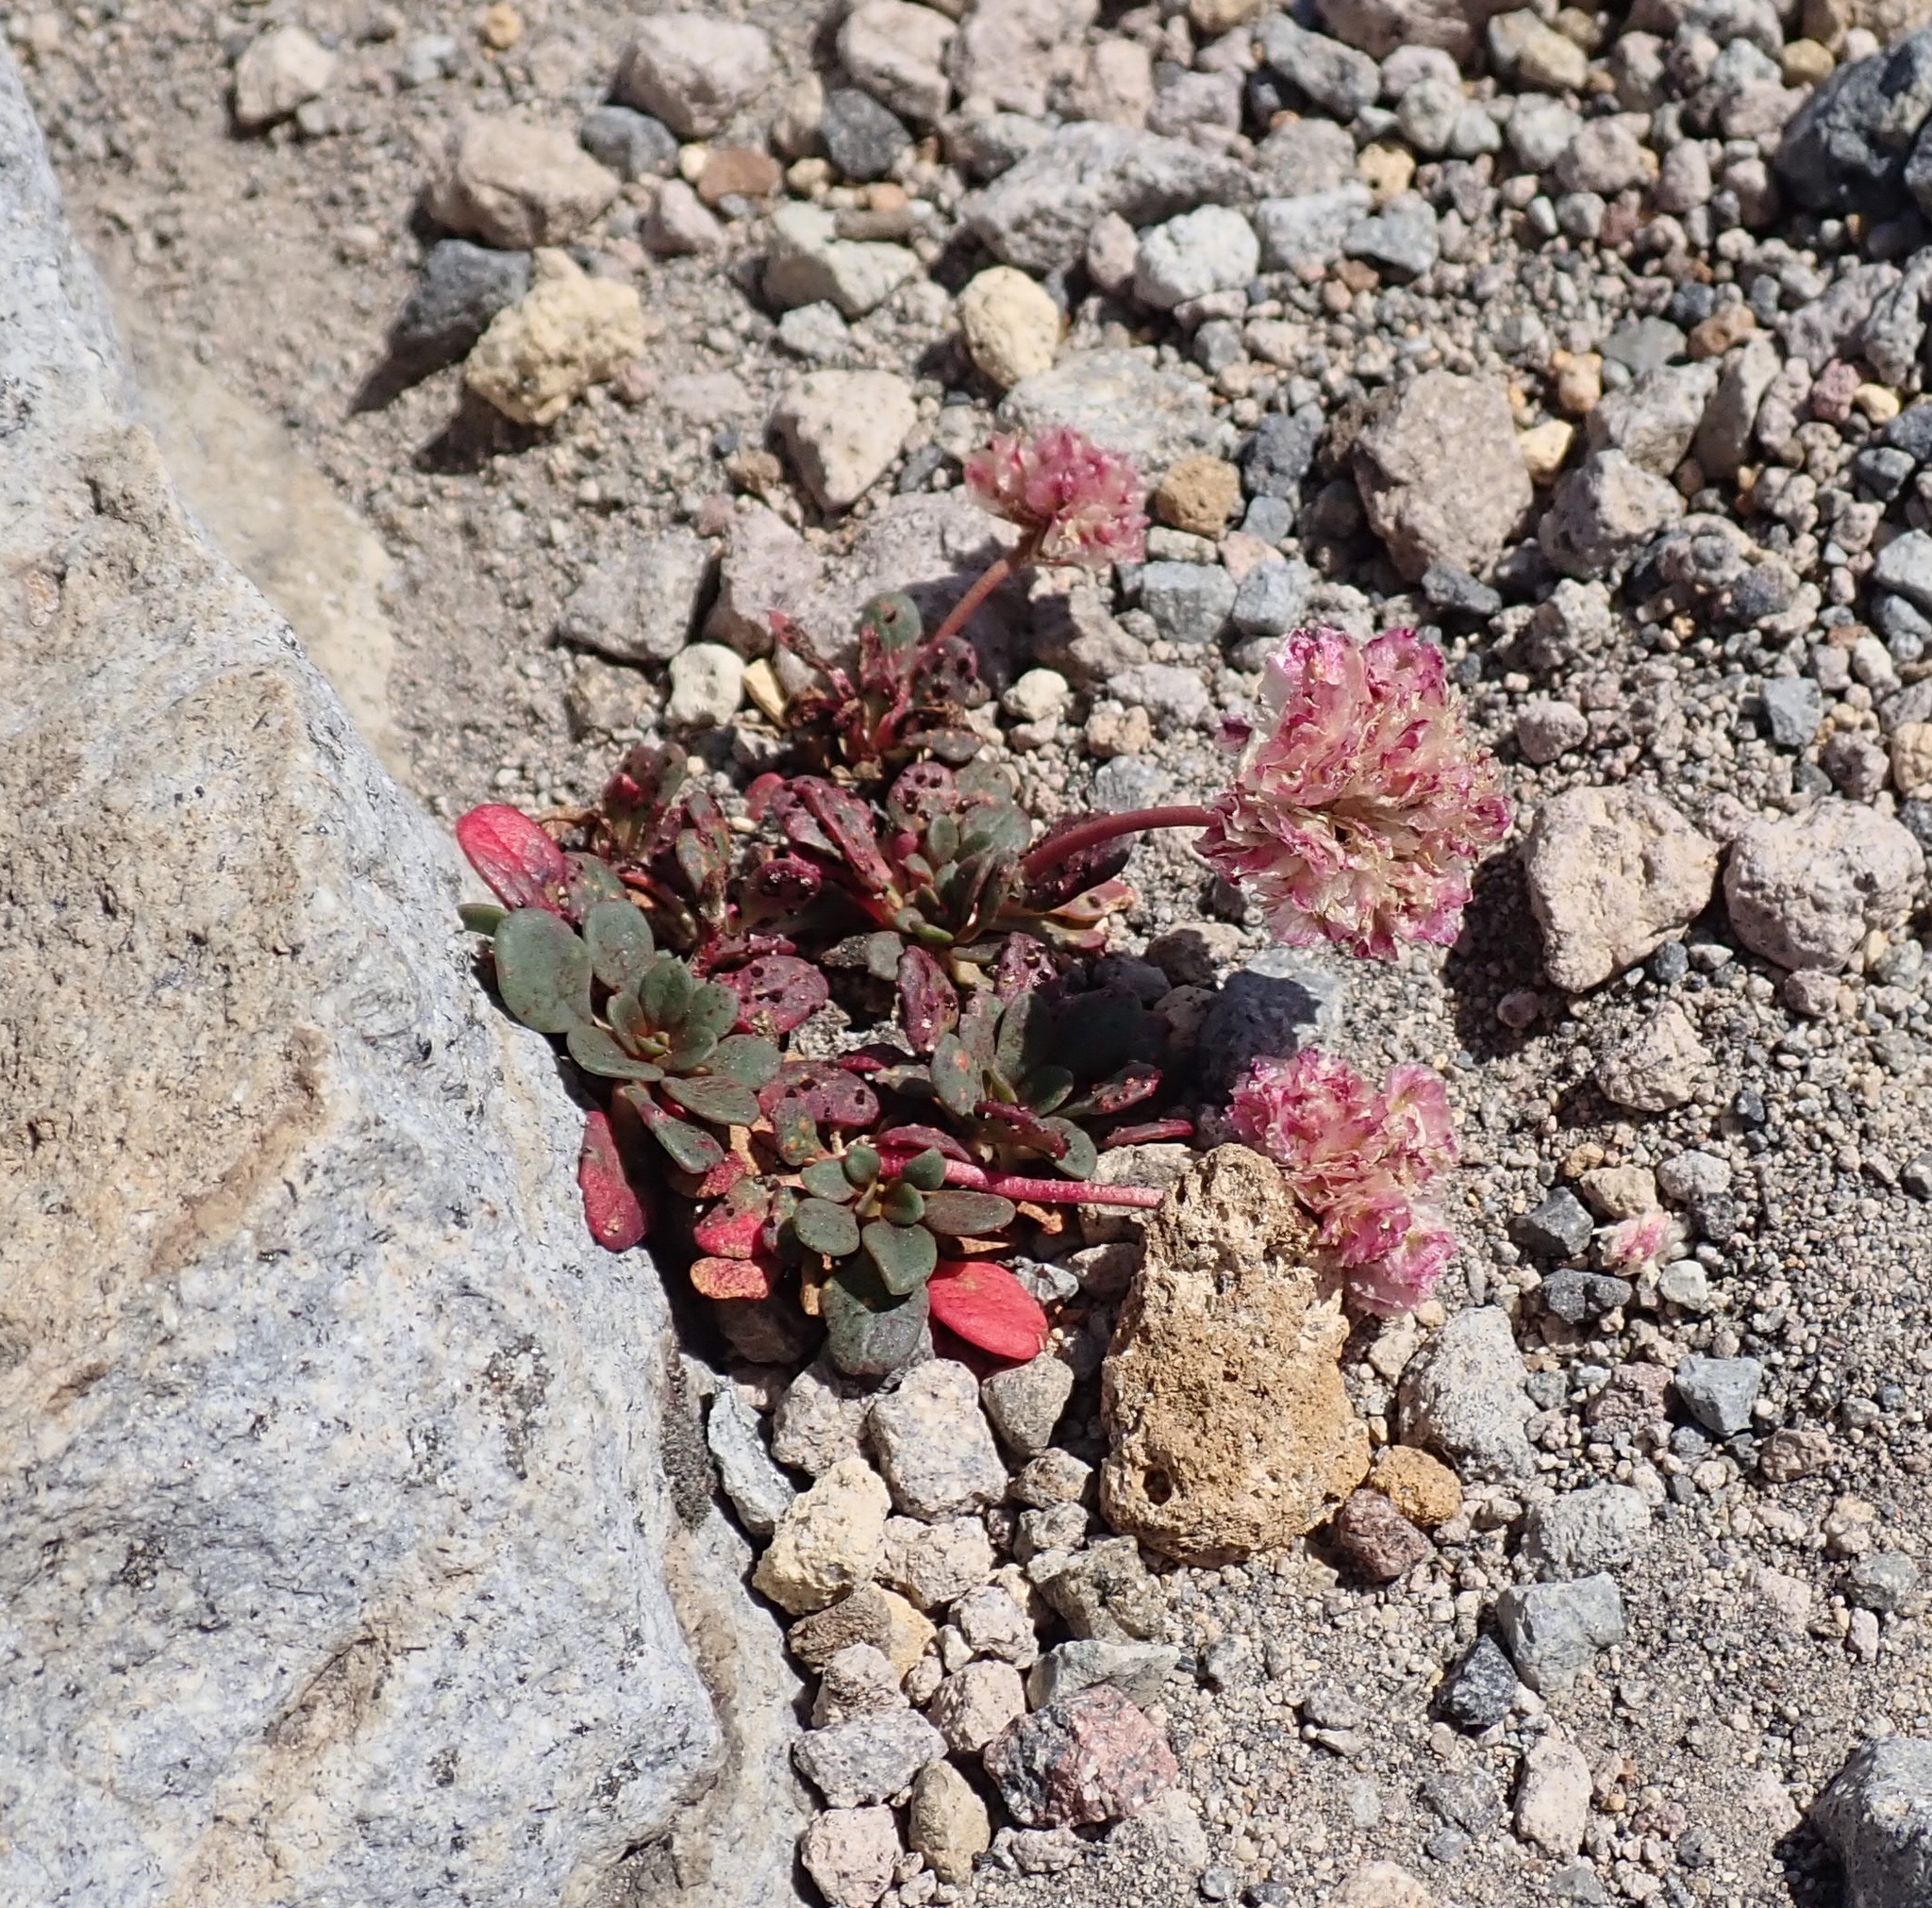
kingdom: Plantae
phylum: Tracheophyta
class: Magnoliopsida
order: Caryophyllales
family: Montiaceae
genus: Calyptridium
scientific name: Calyptridium umbellatum
